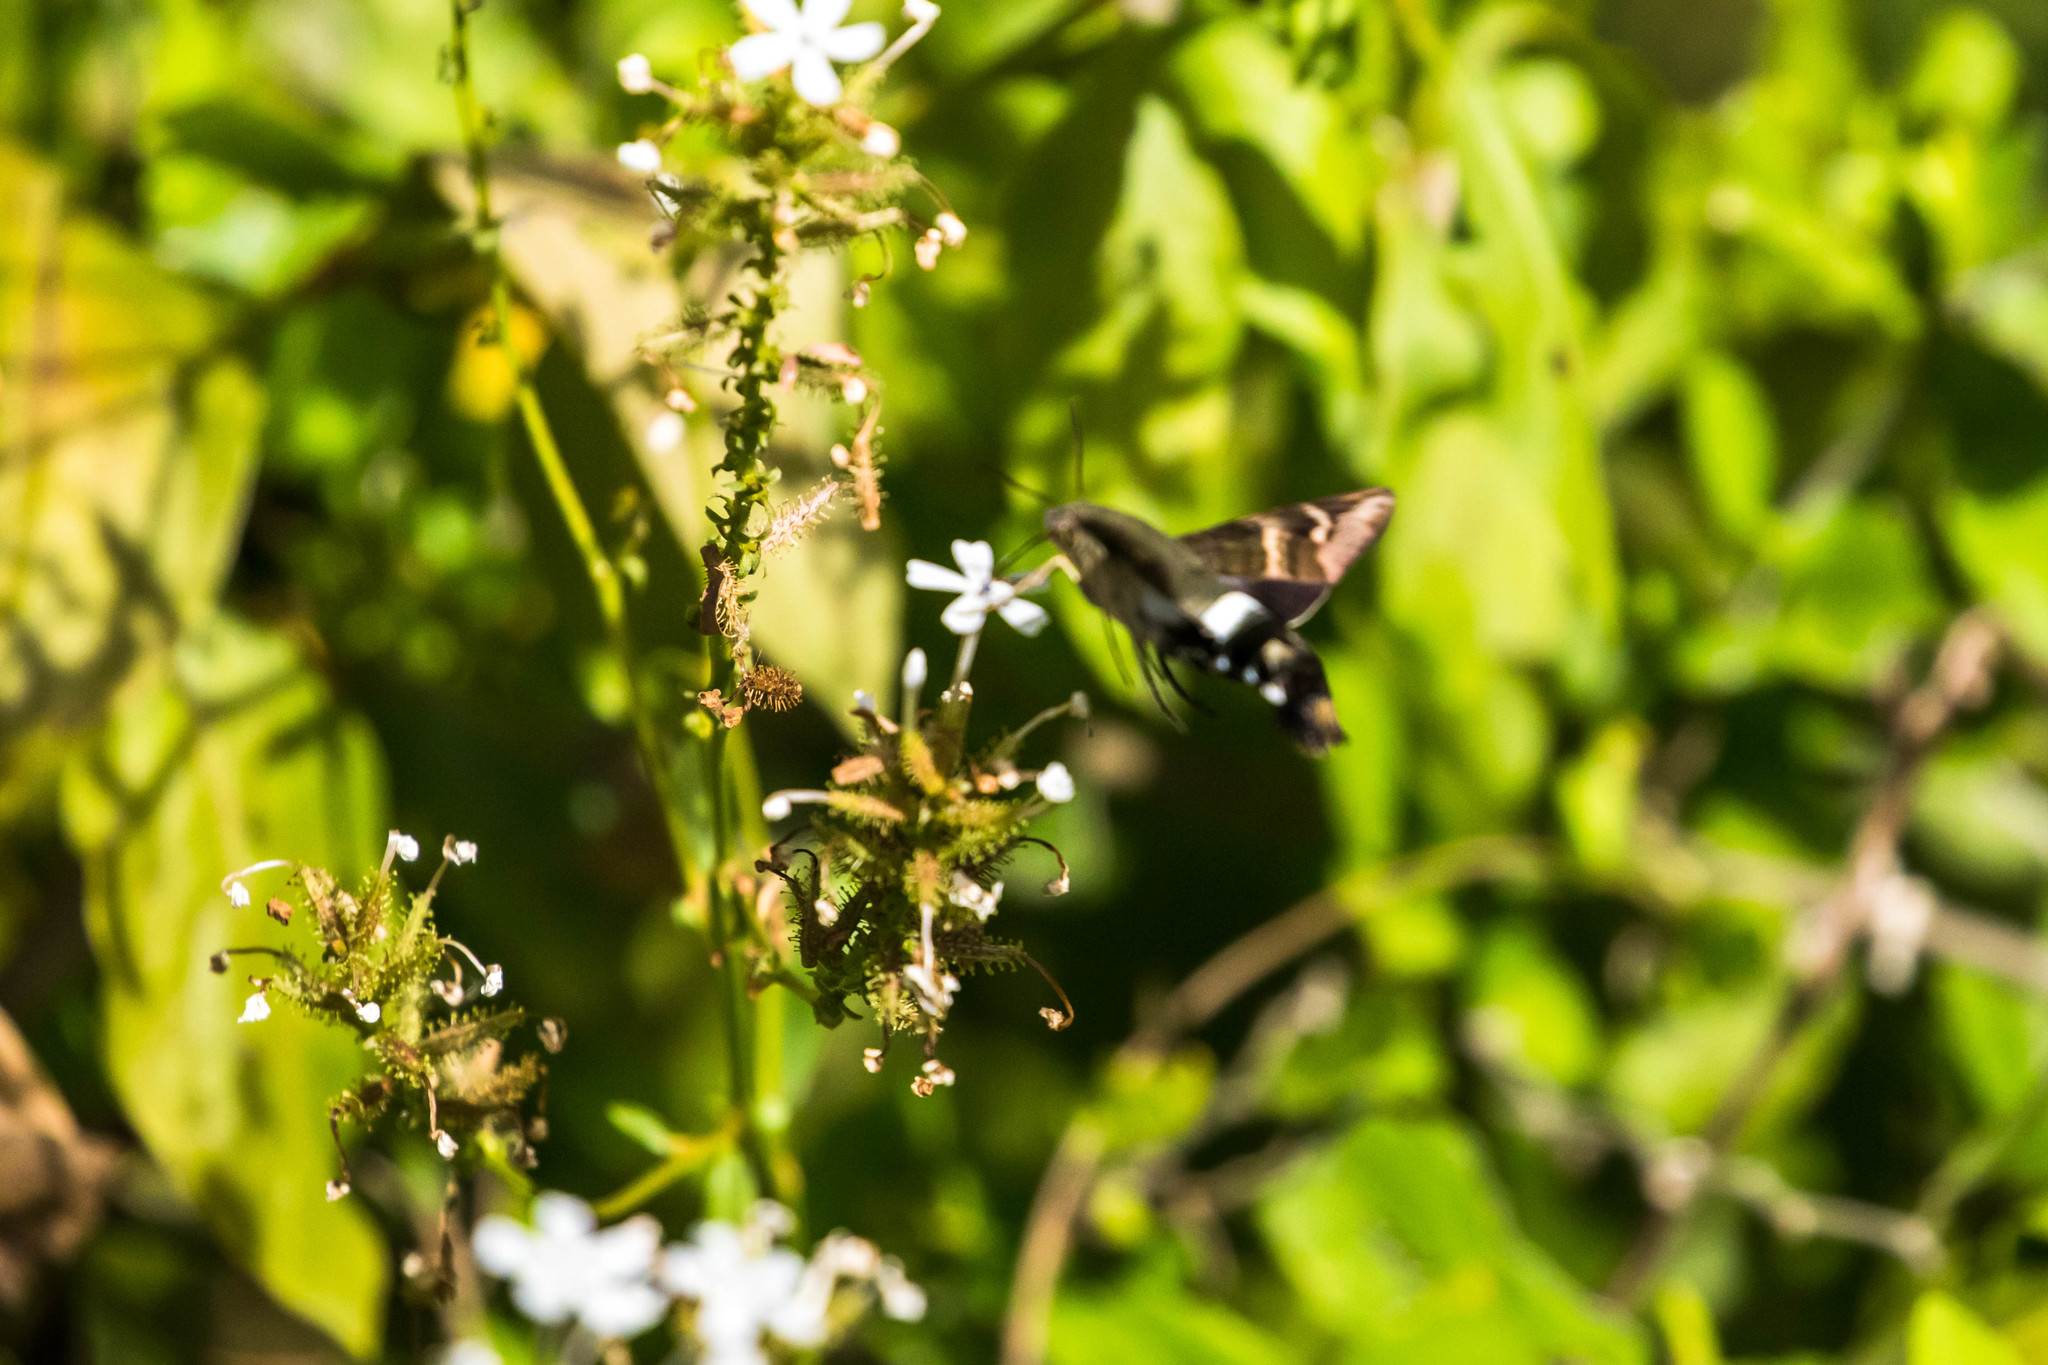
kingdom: Animalia
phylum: Arthropoda
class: Insecta
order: Lepidoptera
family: Sphingidae
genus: Aellopos
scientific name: Aellopos clavipes
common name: Clavipes sphinx
